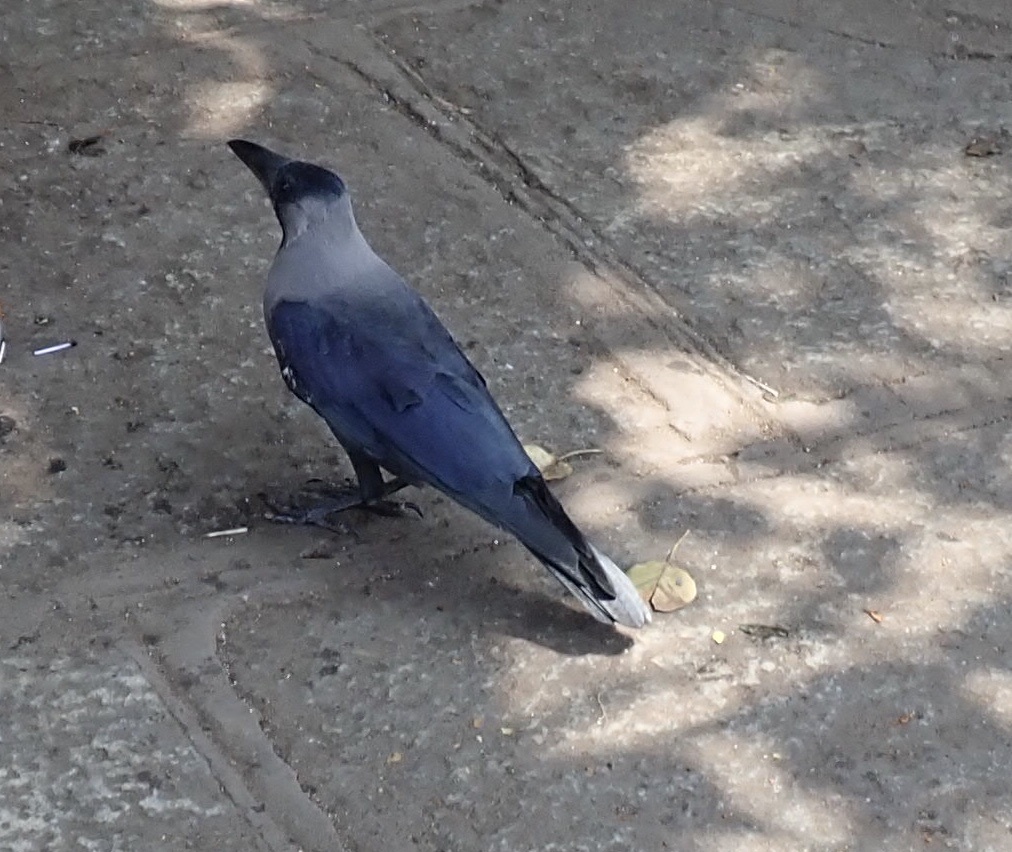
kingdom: Animalia
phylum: Chordata
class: Aves
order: Passeriformes
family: Corvidae
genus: Corvus
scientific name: Corvus splendens
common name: House crow
